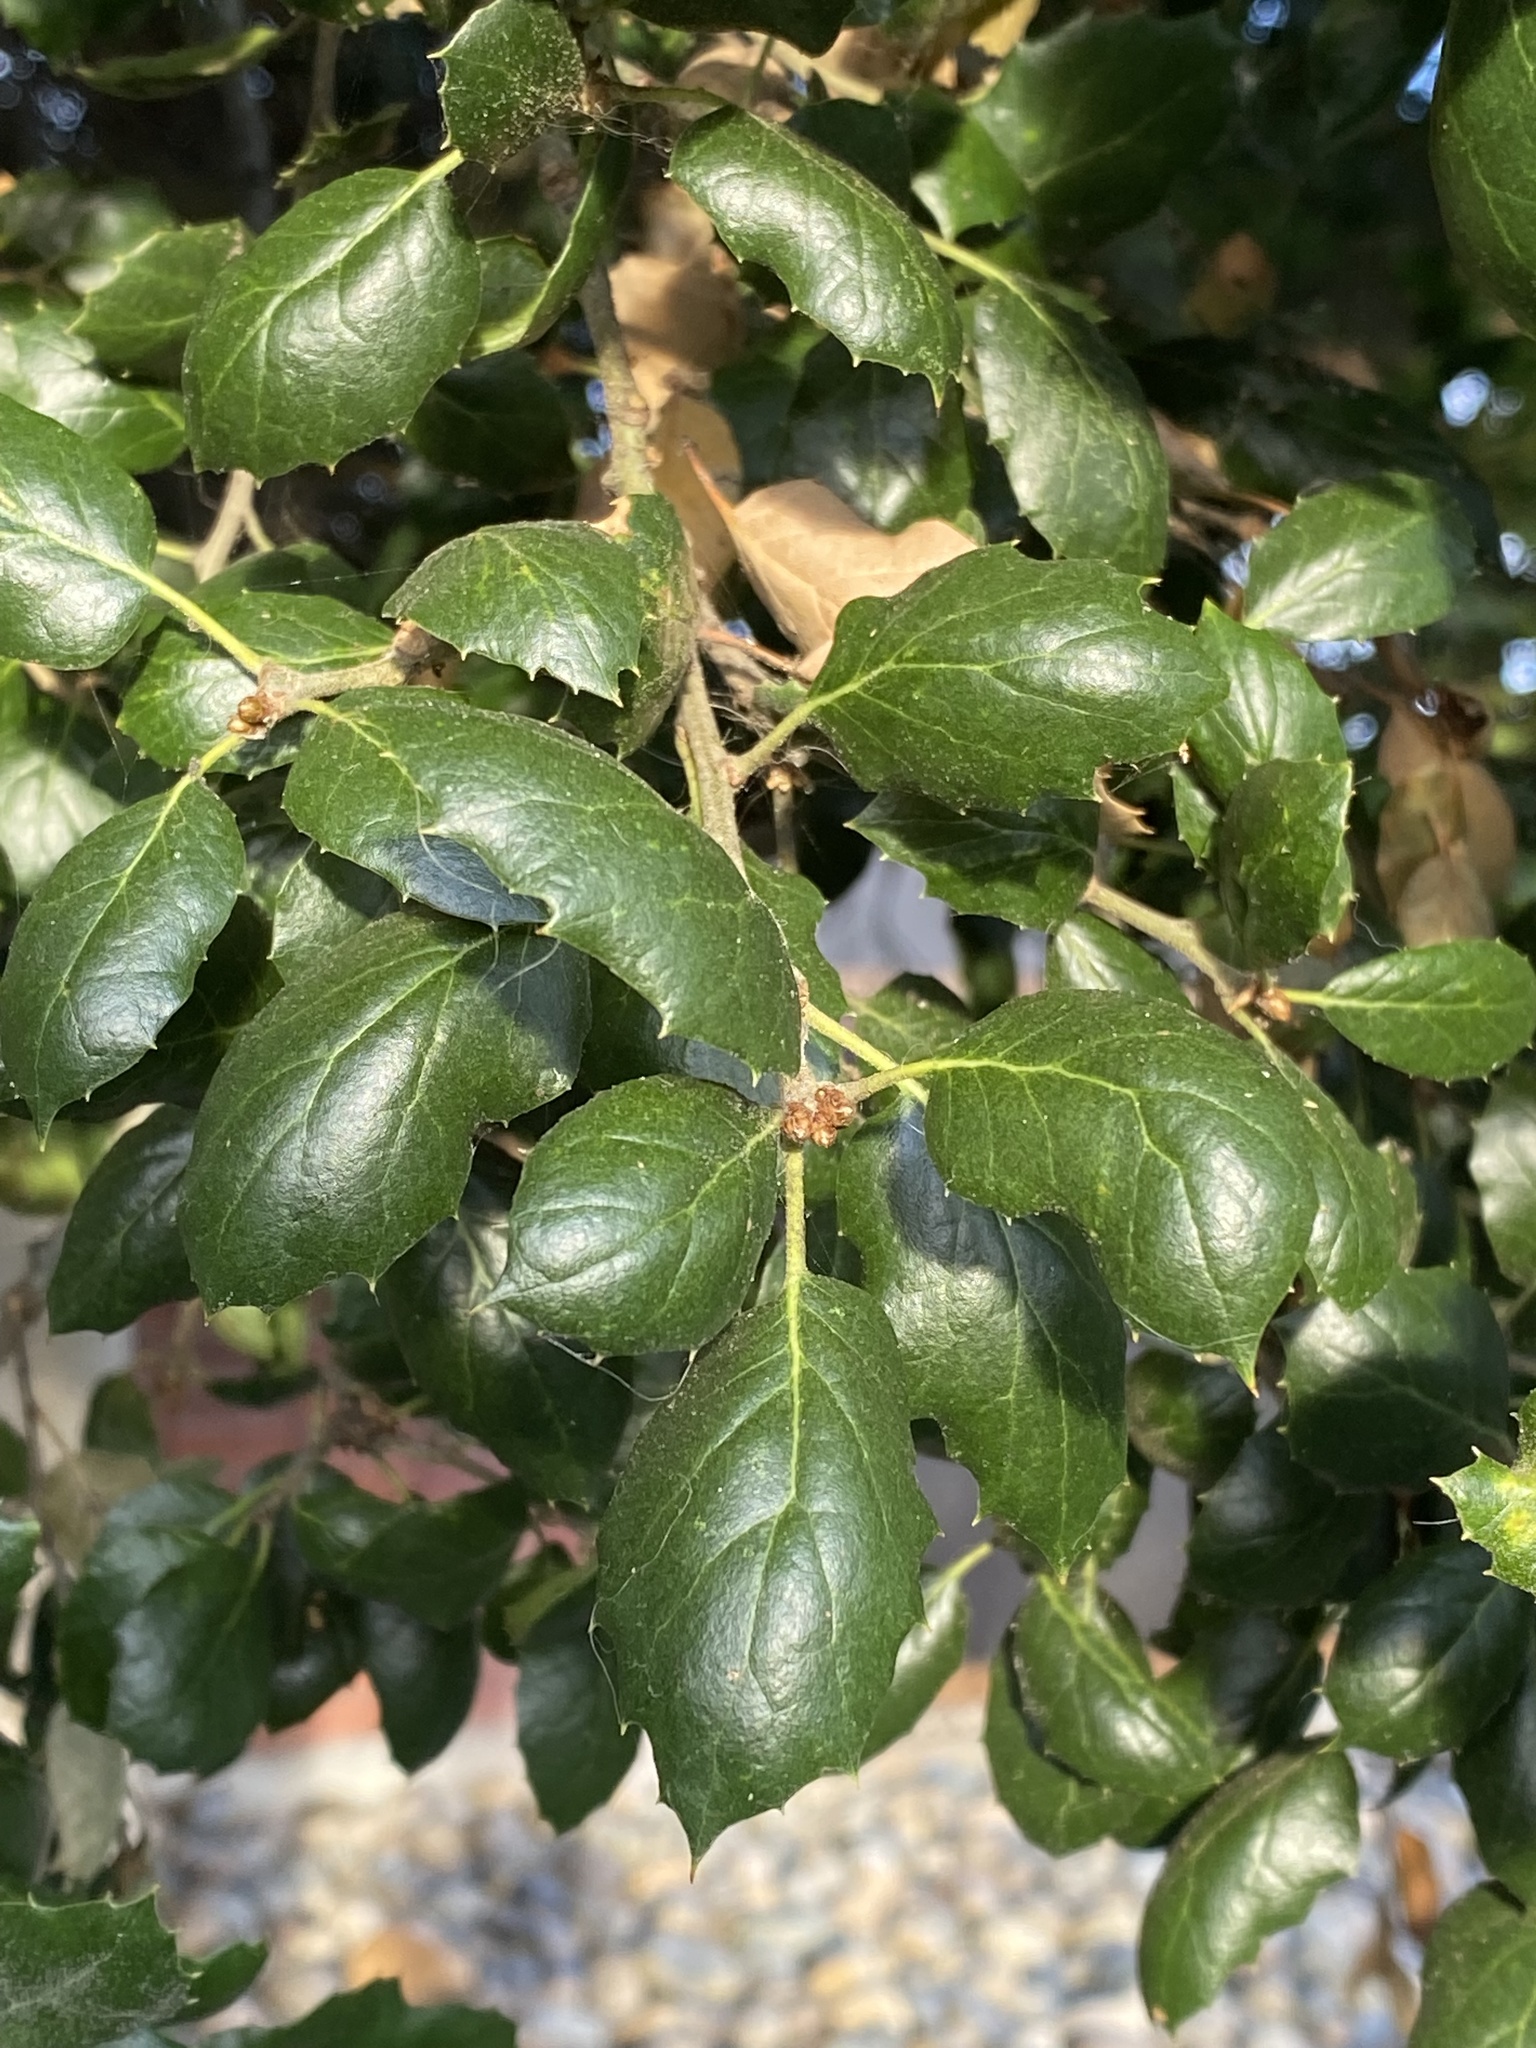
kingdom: Plantae
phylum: Tracheophyta
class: Magnoliopsida
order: Fagales
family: Fagaceae
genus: Quercus
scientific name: Quercus agrifolia
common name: California live oak
